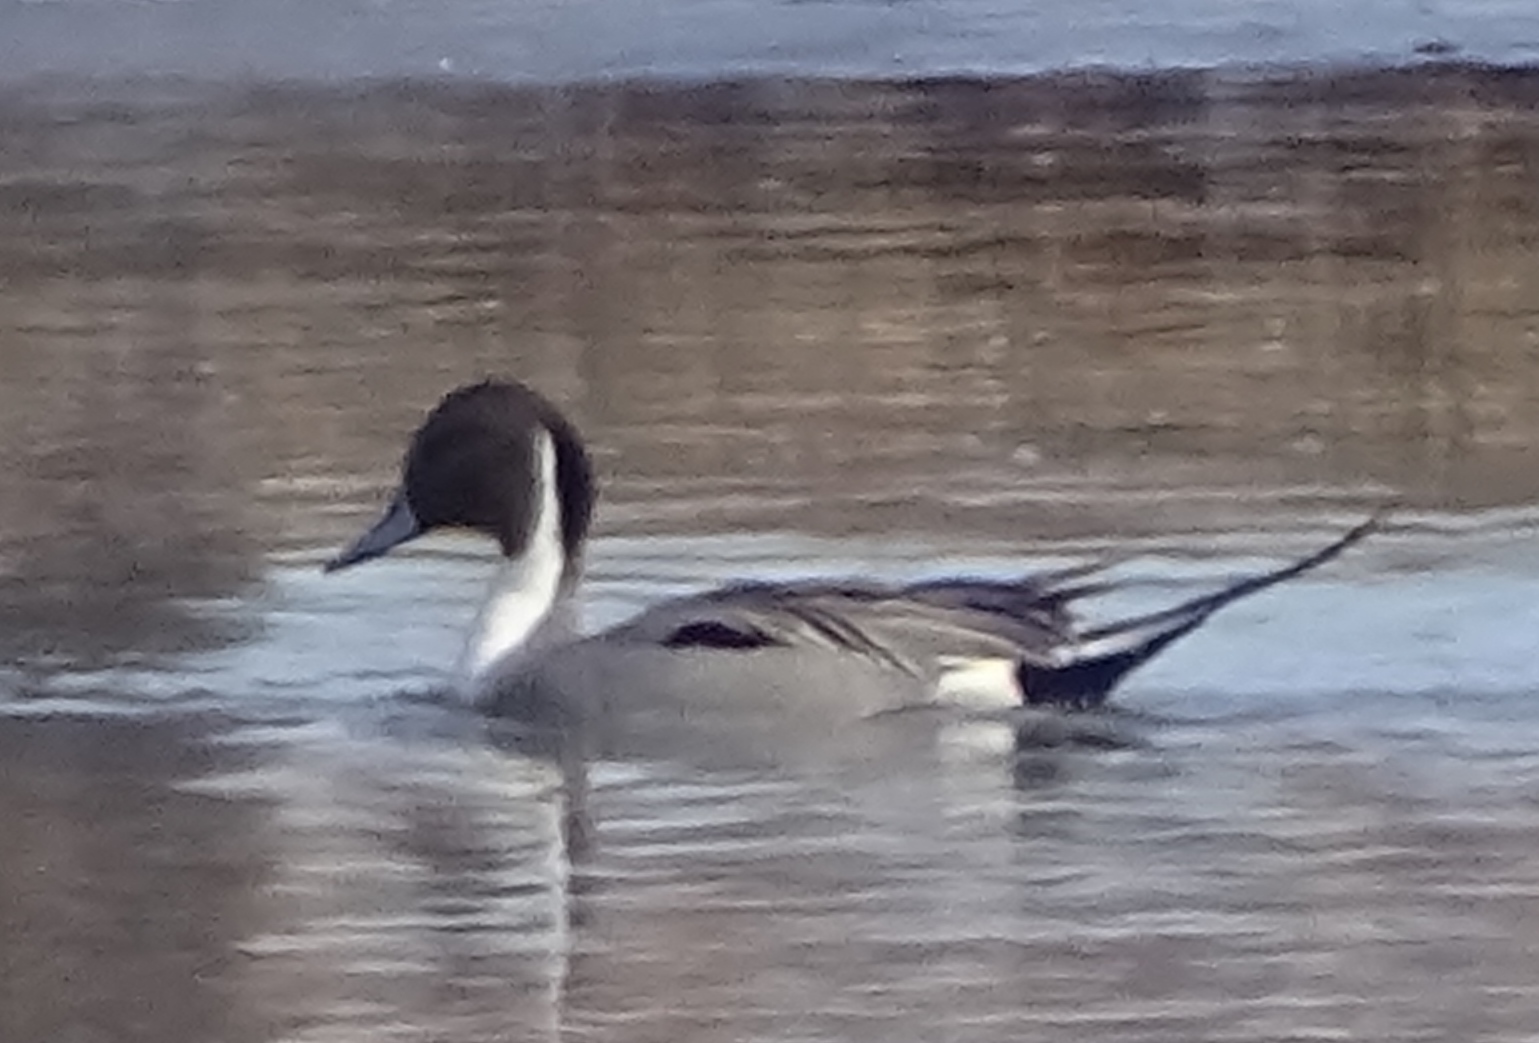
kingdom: Animalia
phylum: Chordata
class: Aves
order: Anseriformes
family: Anatidae
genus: Anas
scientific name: Anas acuta
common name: Northern pintail
